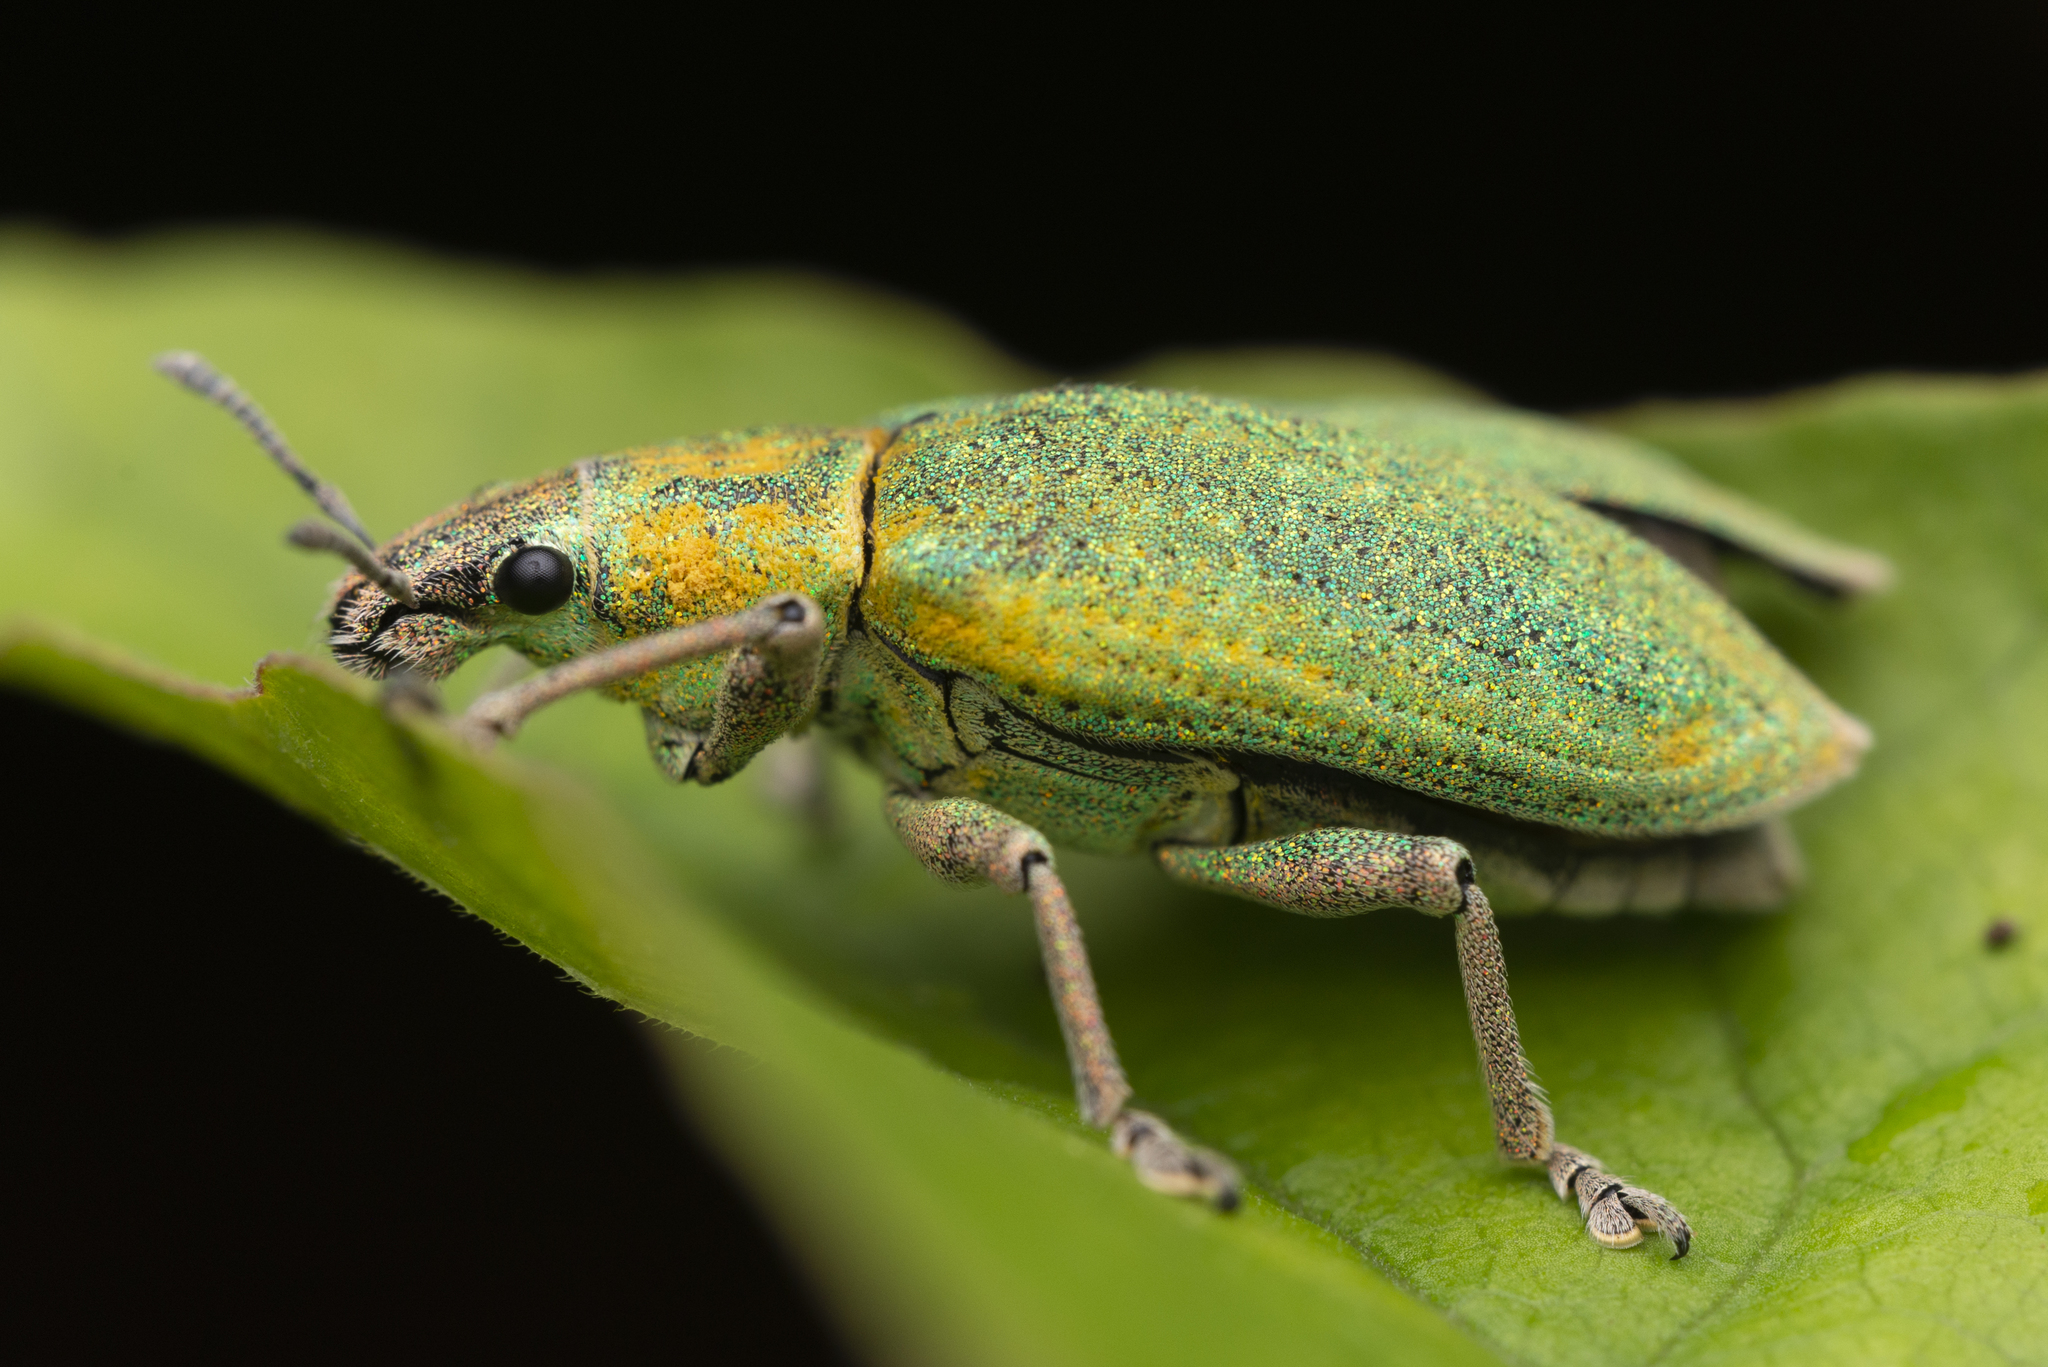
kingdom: Animalia
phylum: Arthropoda
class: Insecta
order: Coleoptera
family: Curculionidae
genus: Hypomeces
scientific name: Hypomeces pulviger
